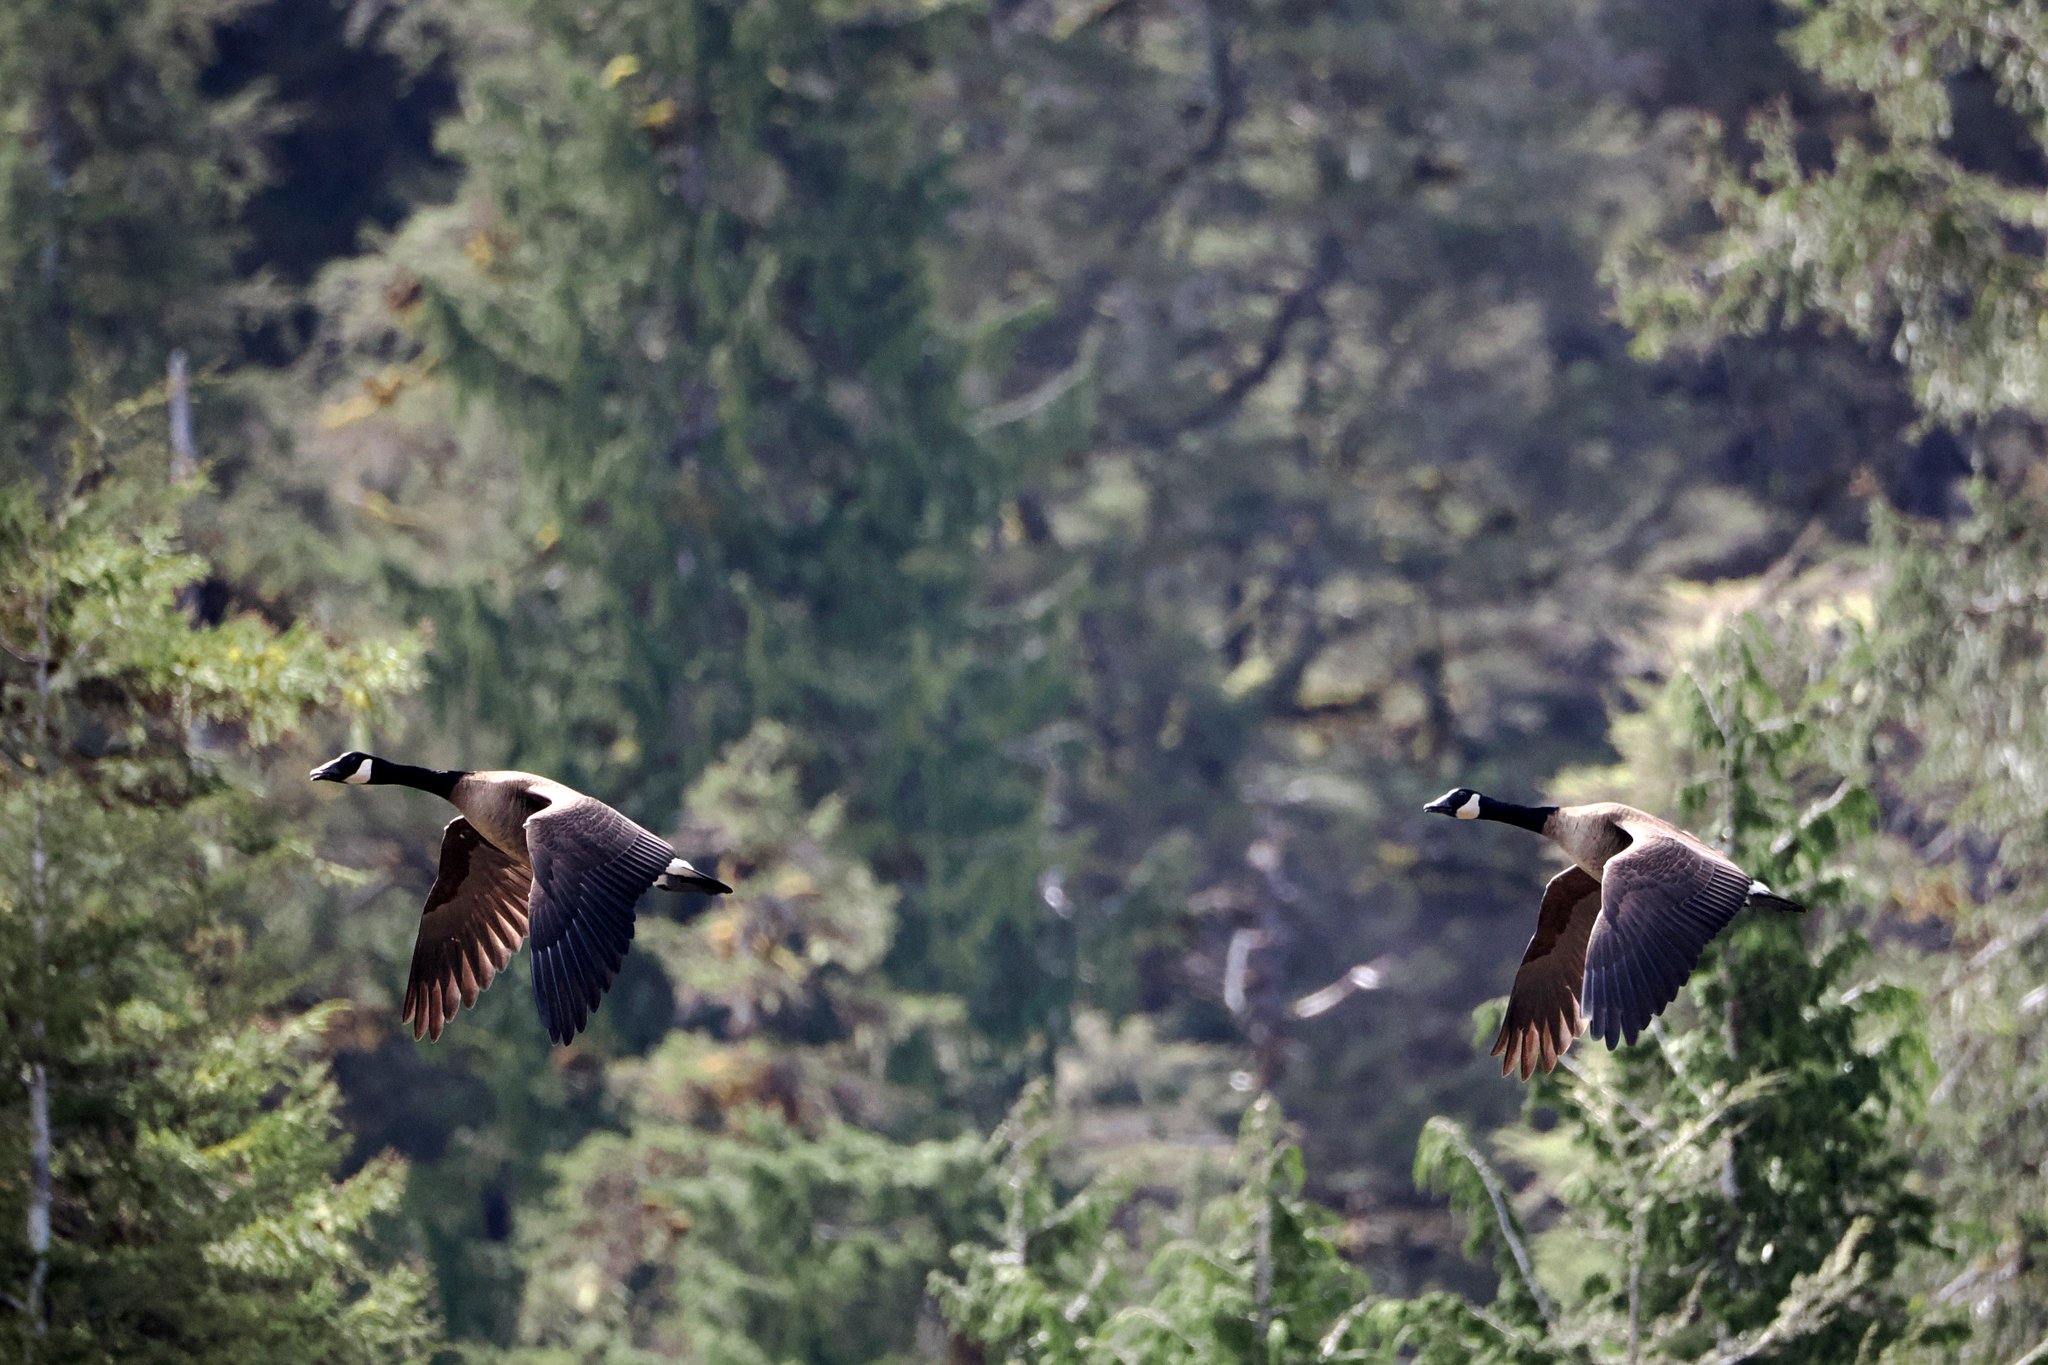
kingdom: Animalia
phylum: Chordata
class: Aves
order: Anseriformes
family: Anatidae
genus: Branta
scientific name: Branta canadensis
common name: Canada goose
